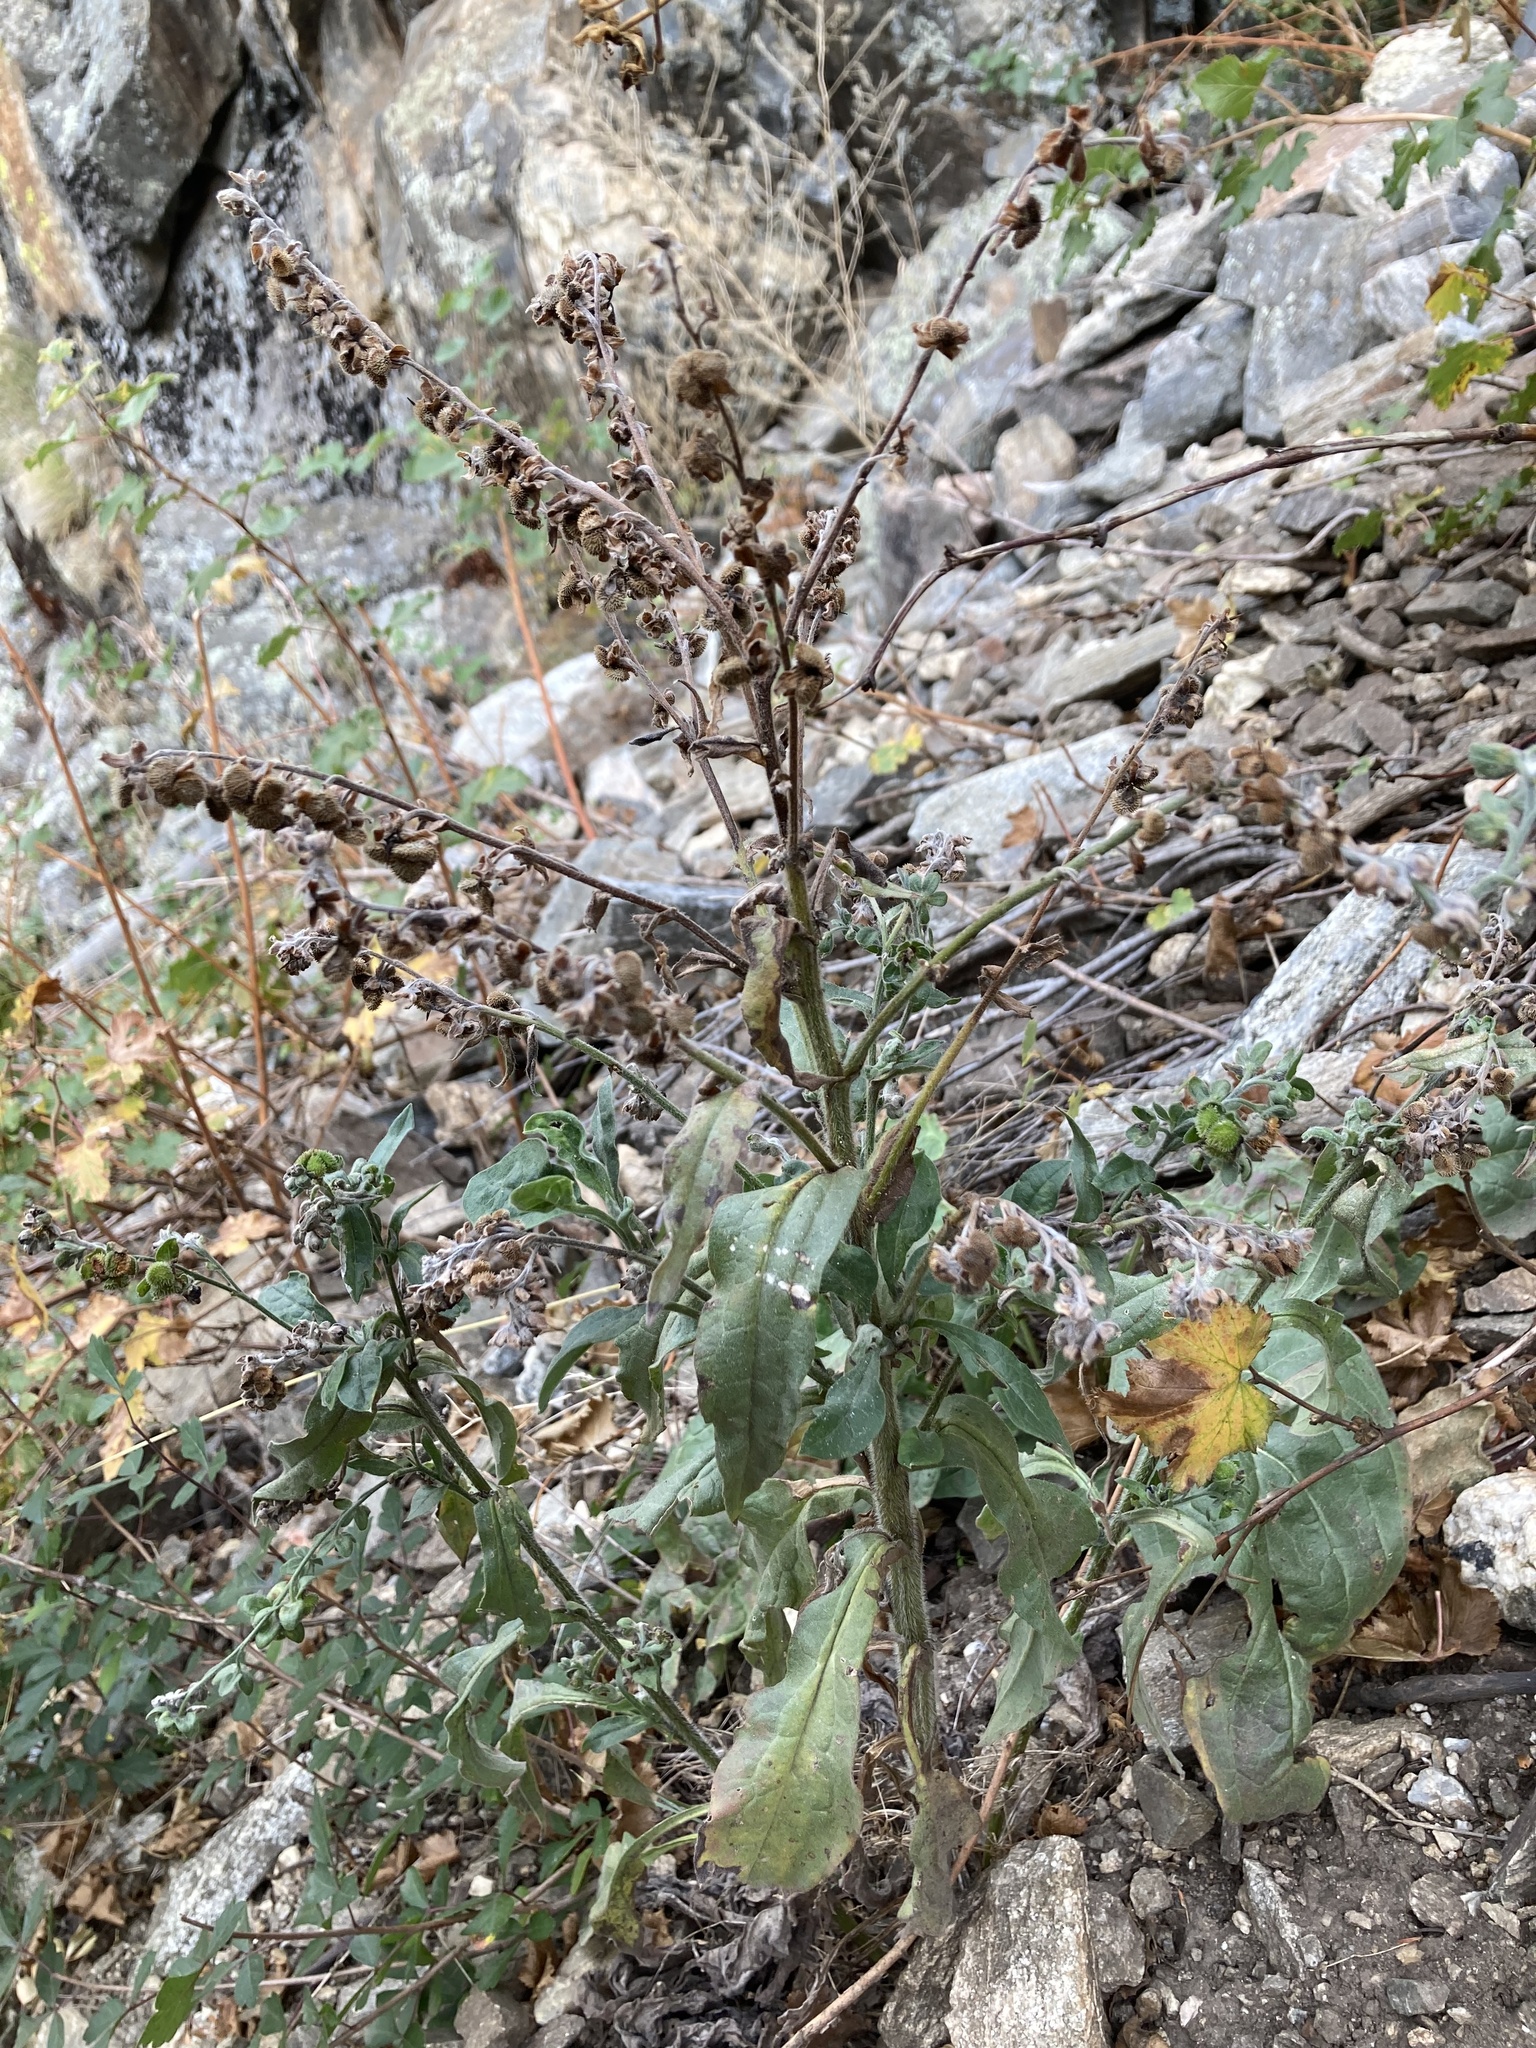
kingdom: Plantae
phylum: Tracheophyta
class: Magnoliopsida
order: Boraginales
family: Boraginaceae
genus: Cynoglossum
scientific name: Cynoglossum officinale
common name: Hound's-tongue
